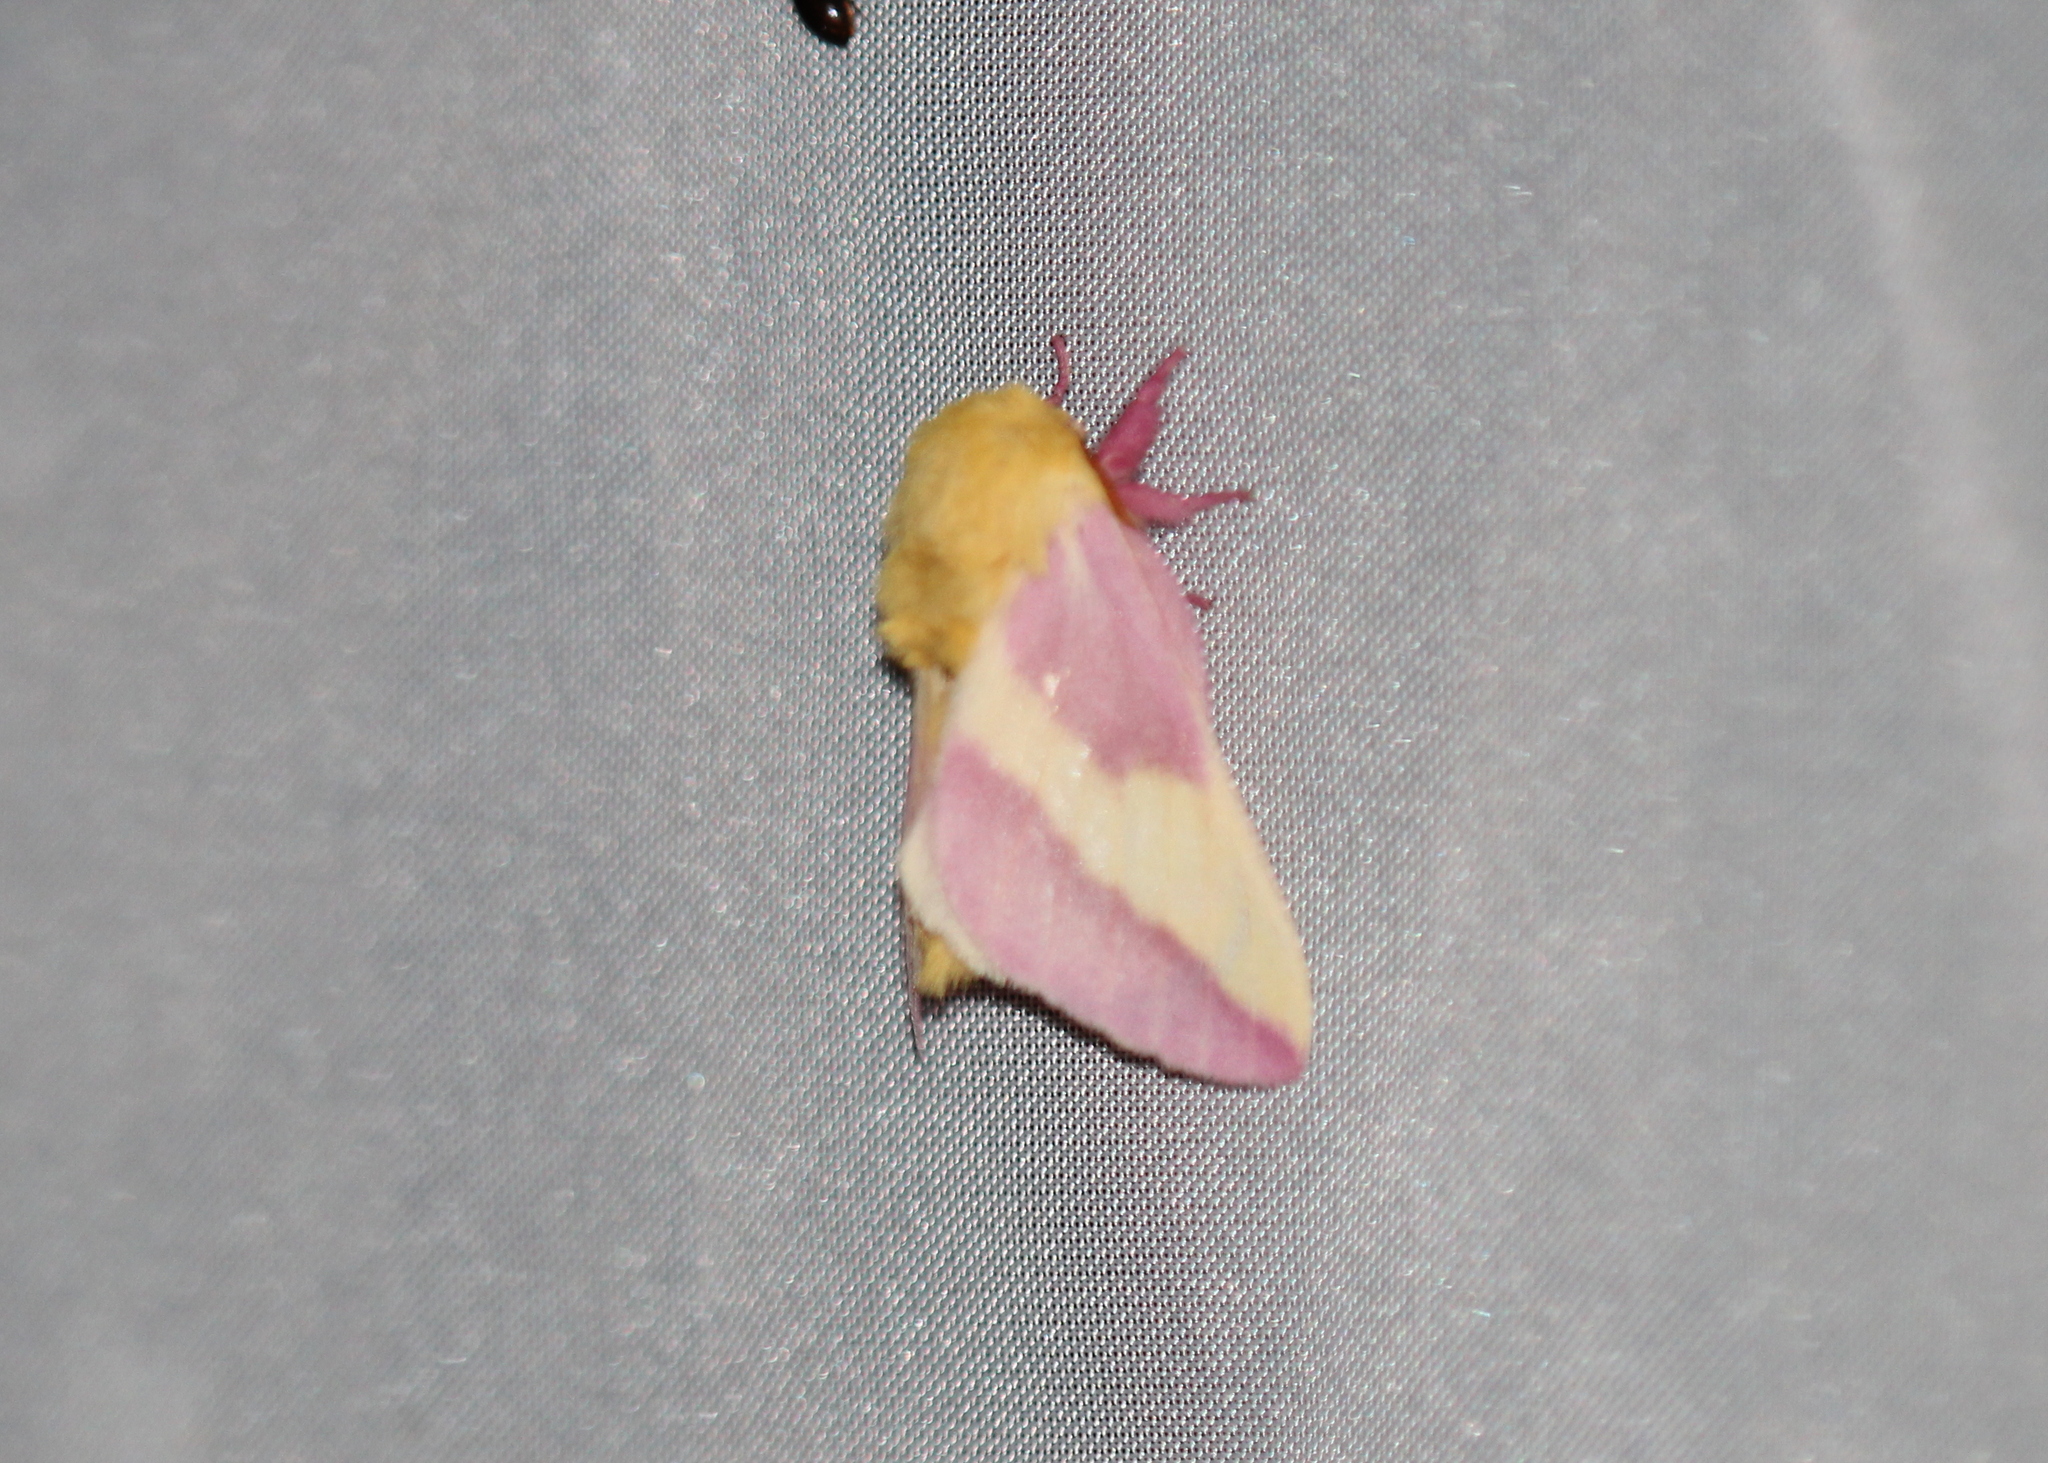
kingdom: Animalia
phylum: Arthropoda
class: Insecta
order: Lepidoptera
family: Saturniidae
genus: Dryocampa
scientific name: Dryocampa rubicunda
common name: Rosy maple moth
